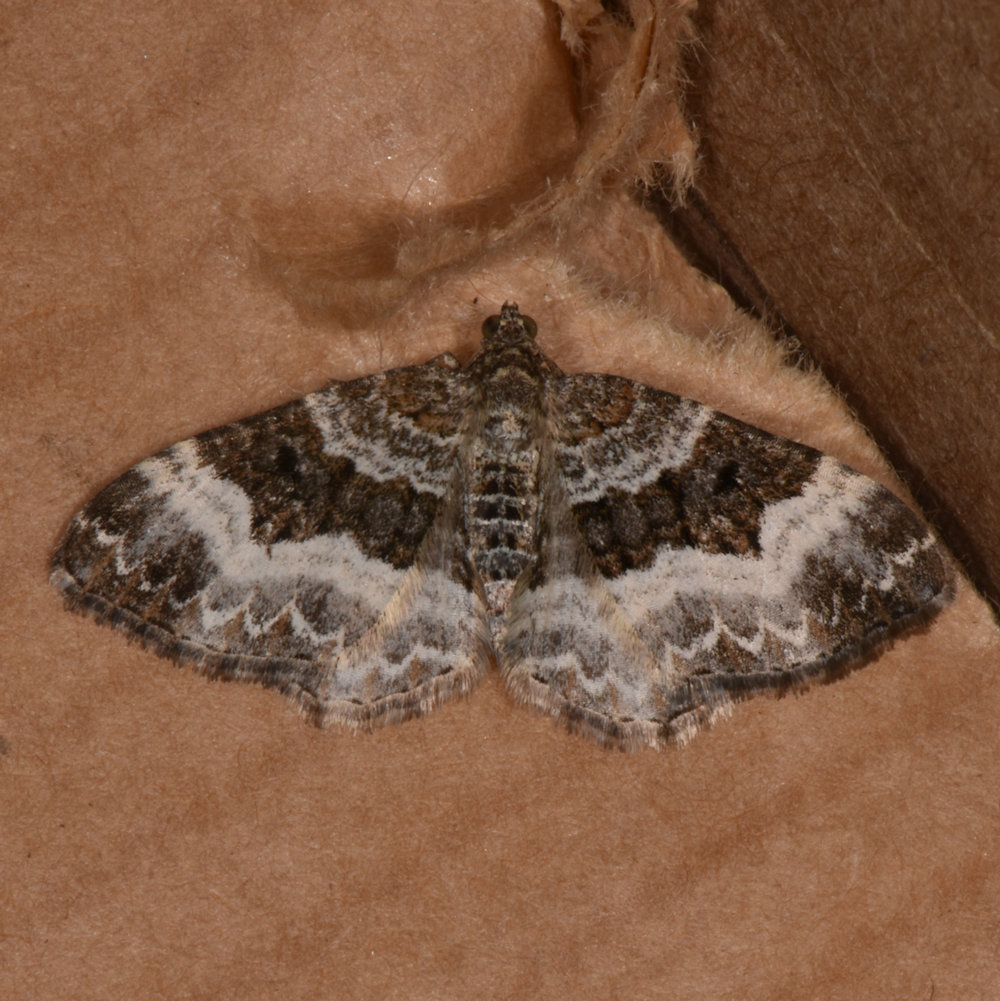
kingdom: Animalia
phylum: Arthropoda
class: Insecta
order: Lepidoptera
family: Geometridae
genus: Epirrhoe
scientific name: Epirrhoe alternata
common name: Common carpet
